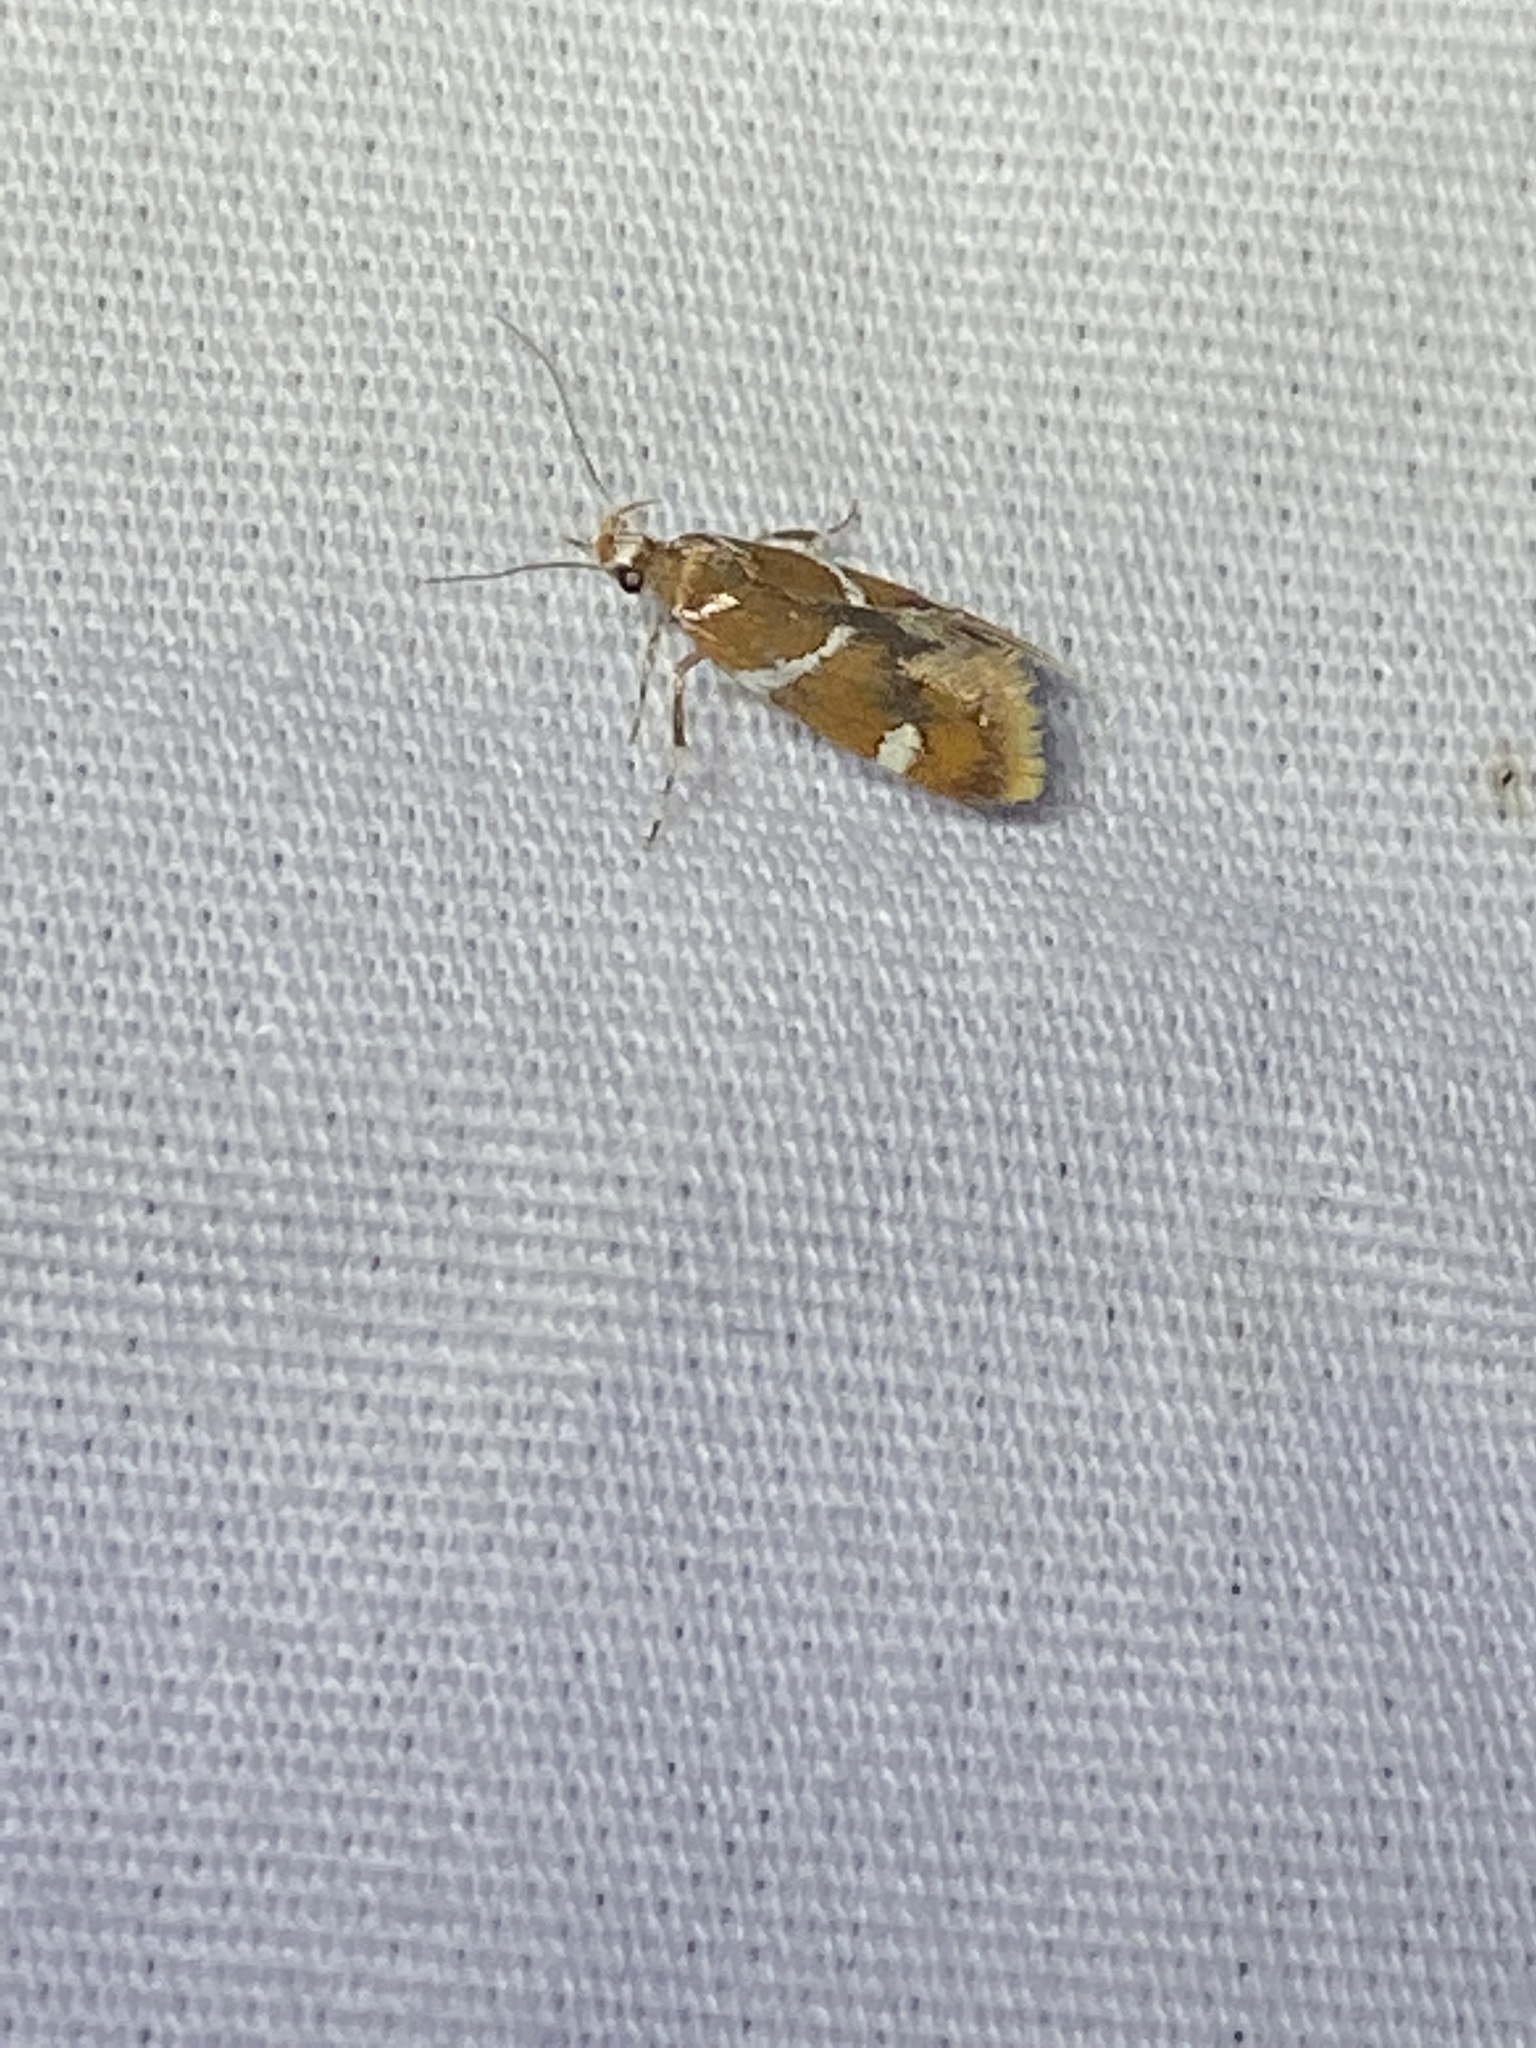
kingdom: Animalia
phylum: Arthropoda
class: Insecta
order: Lepidoptera
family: Oecophoridae
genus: Promalactis
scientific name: Promalactis suzukiella
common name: Moth
